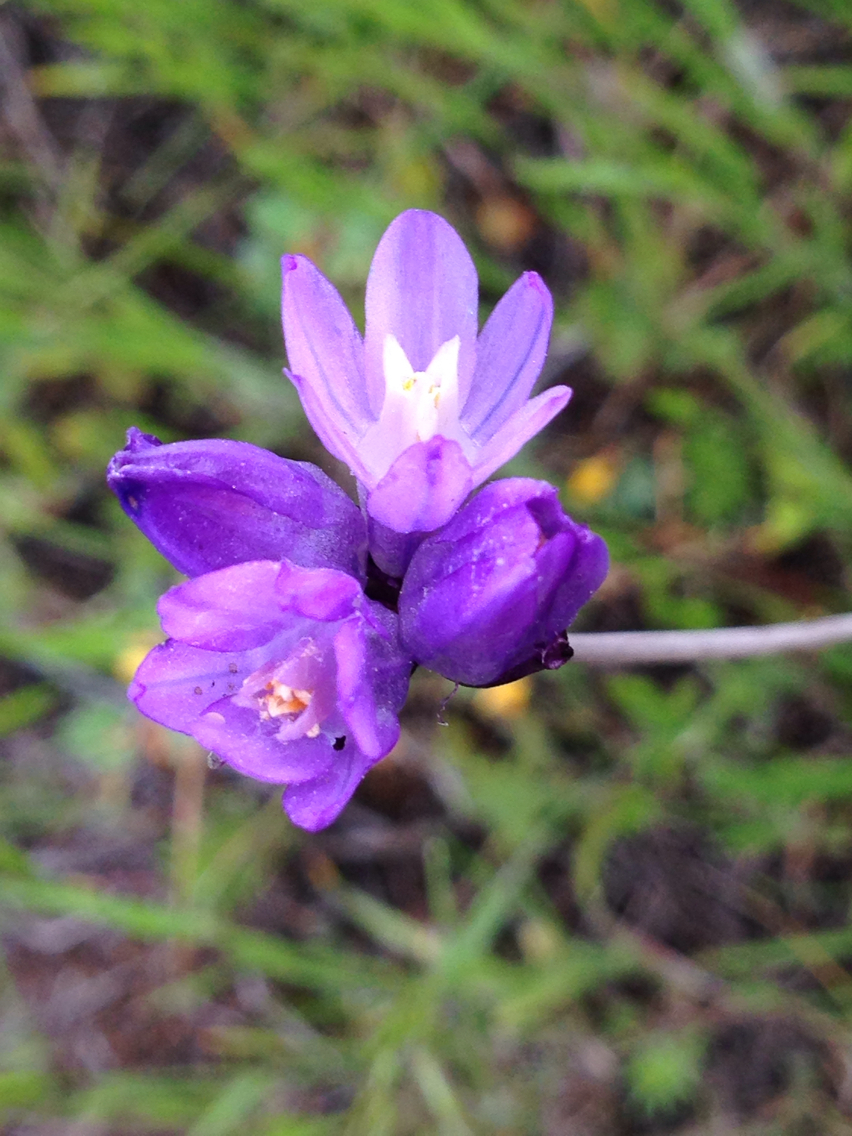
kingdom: Plantae
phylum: Tracheophyta
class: Liliopsida
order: Asparagales
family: Asparagaceae
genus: Dipterostemon
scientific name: Dipterostemon capitatus
